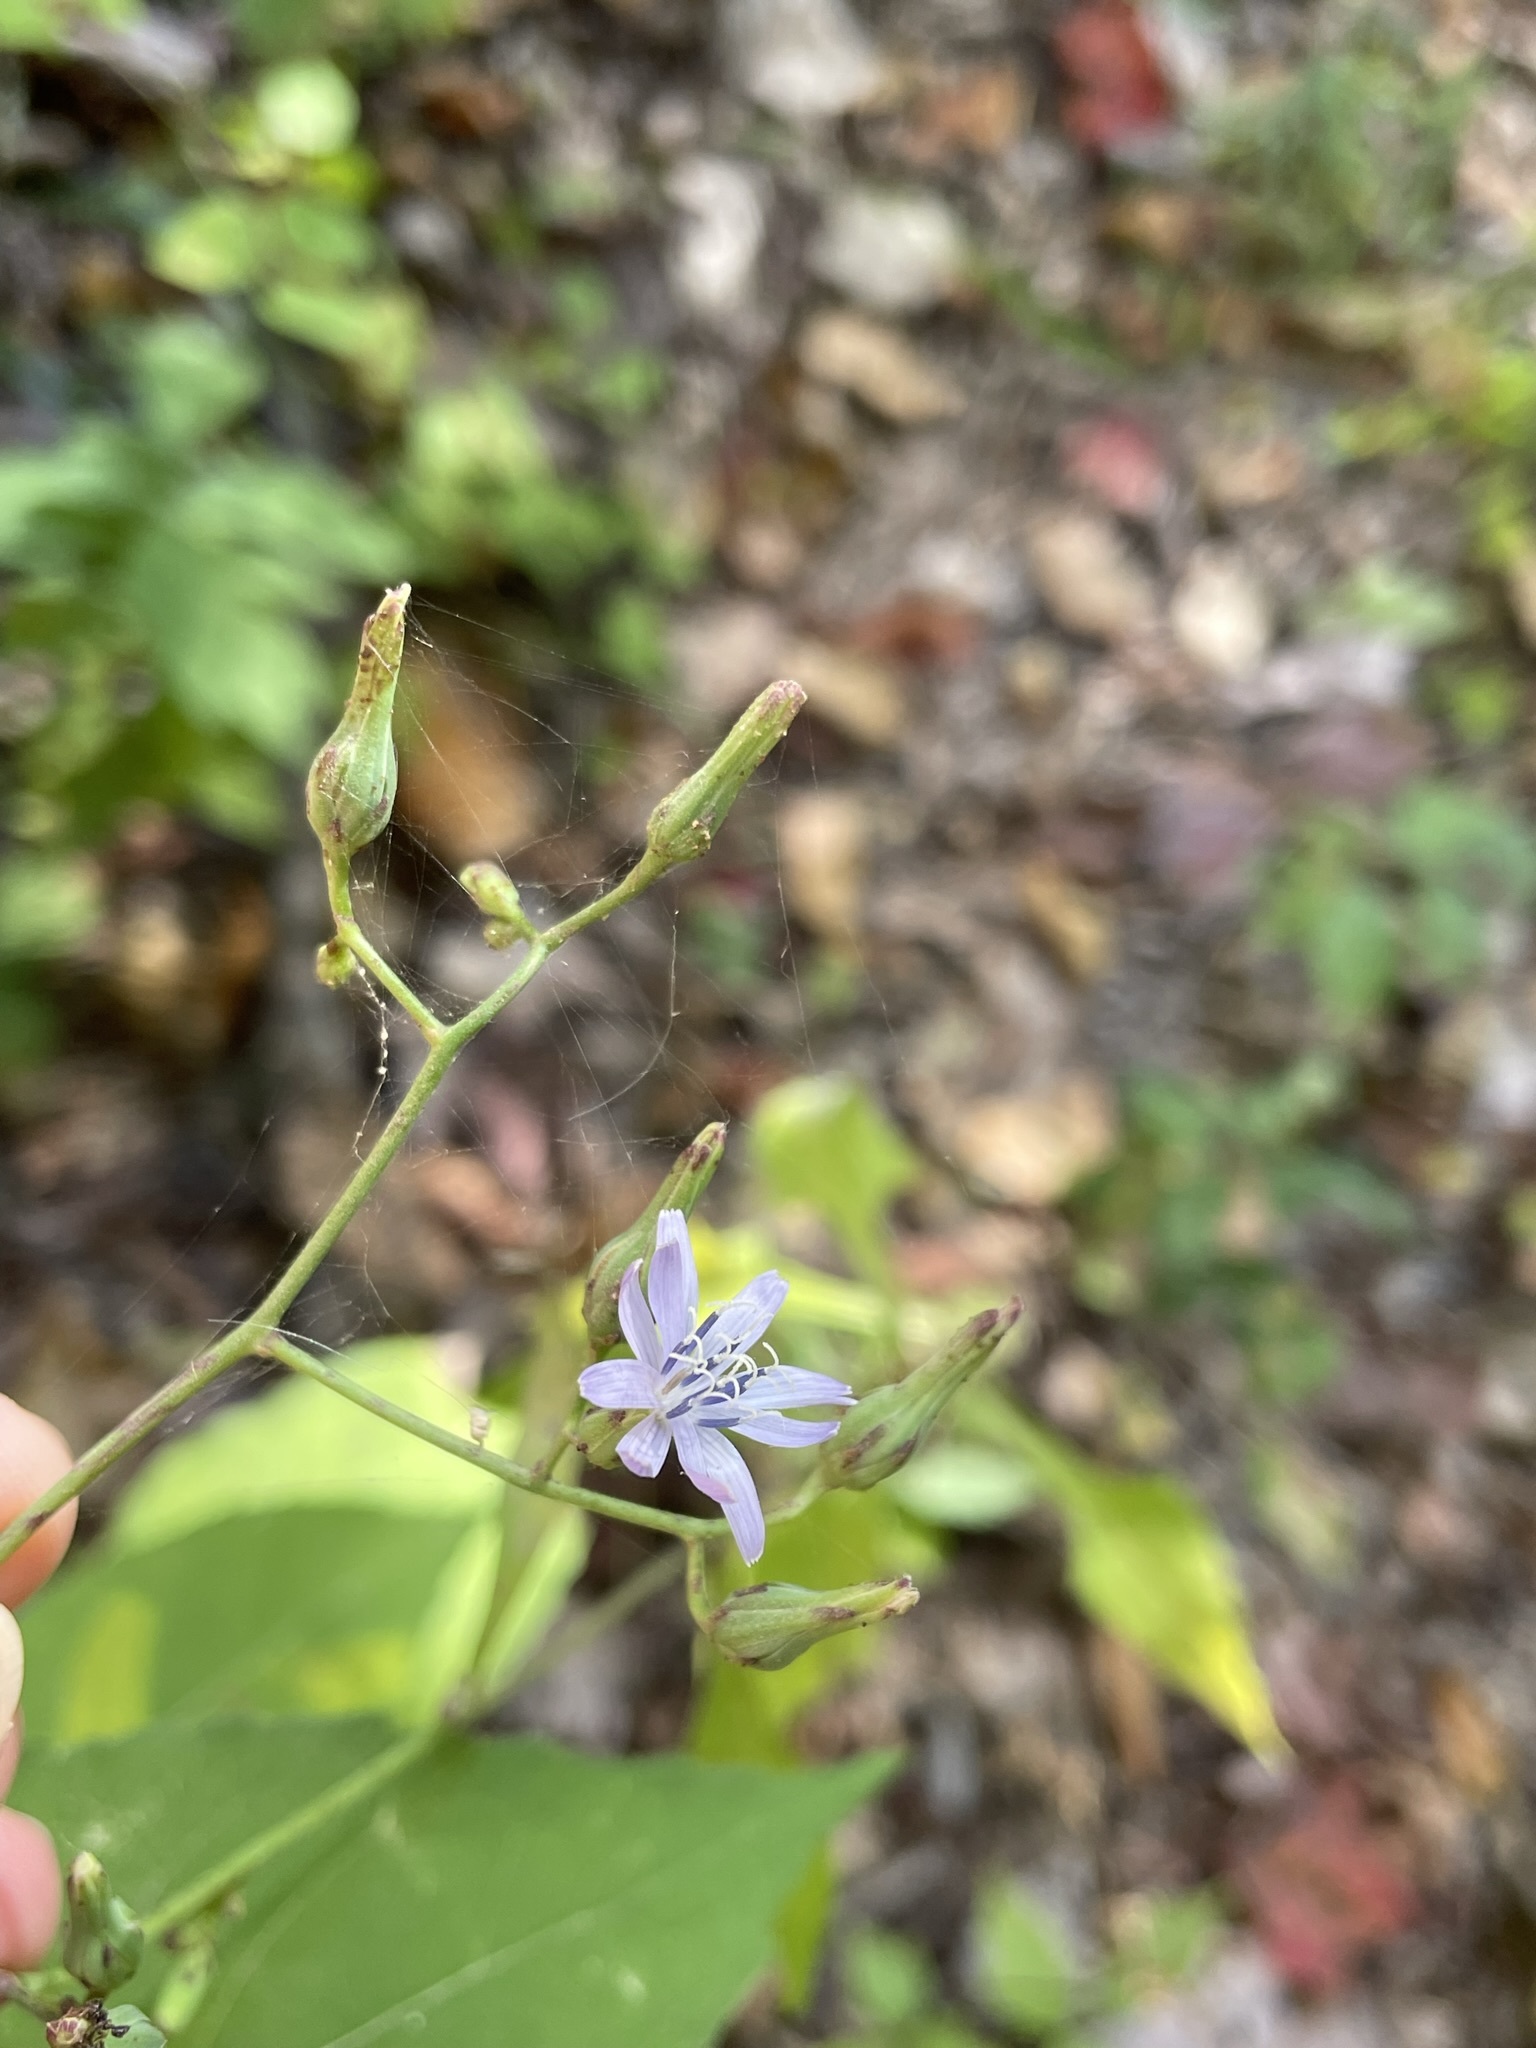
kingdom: Plantae
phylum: Tracheophyta
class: Magnoliopsida
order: Asterales
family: Asteraceae
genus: Lactuca
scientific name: Lactuca floridana
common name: Woodland lettuce
